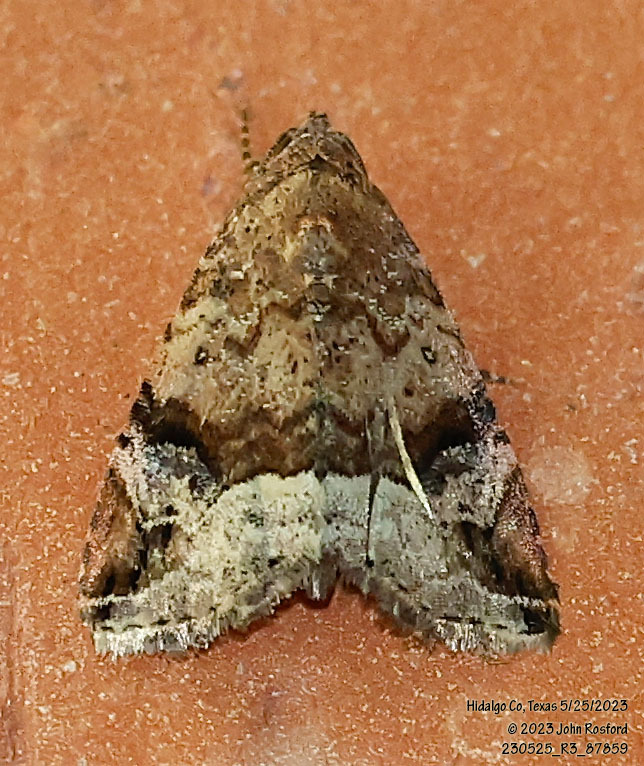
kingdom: Animalia
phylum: Arthropoda
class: Insecta
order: Lepidoptera
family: Noctuidae
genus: Ozarba
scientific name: Ozarba aeria
